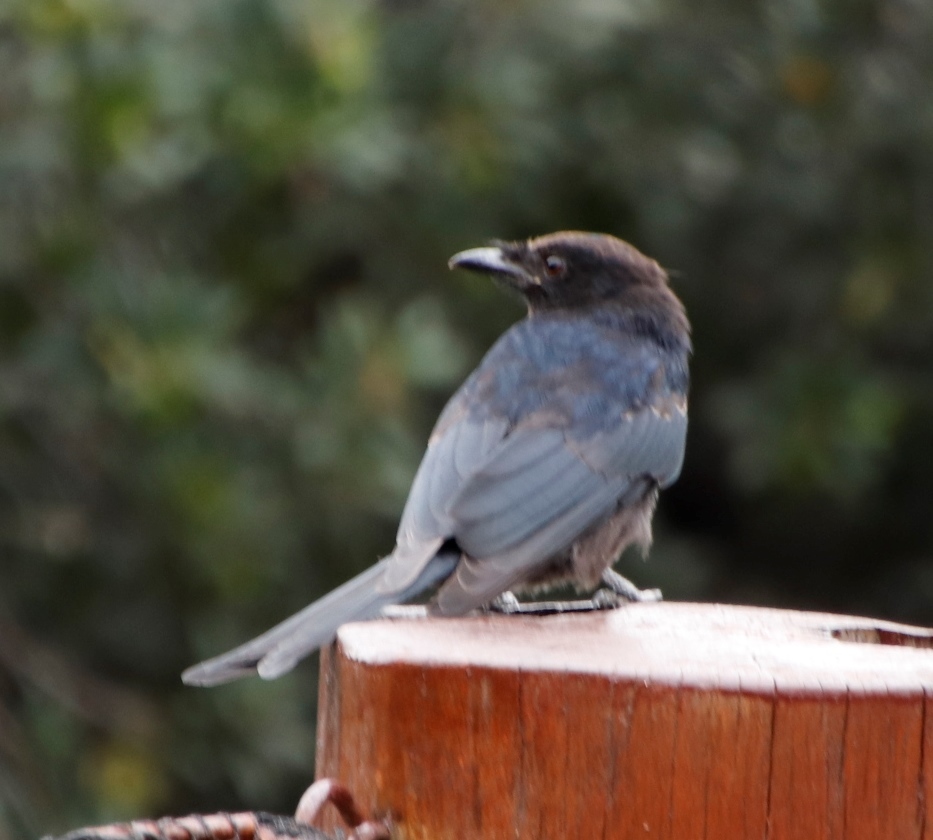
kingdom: Animalia
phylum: Chordata
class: Aves
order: Passeriformes
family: Dicruridae
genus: Dicrurus
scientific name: Dicrurus adsimilis
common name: Fork-tailed drongo
